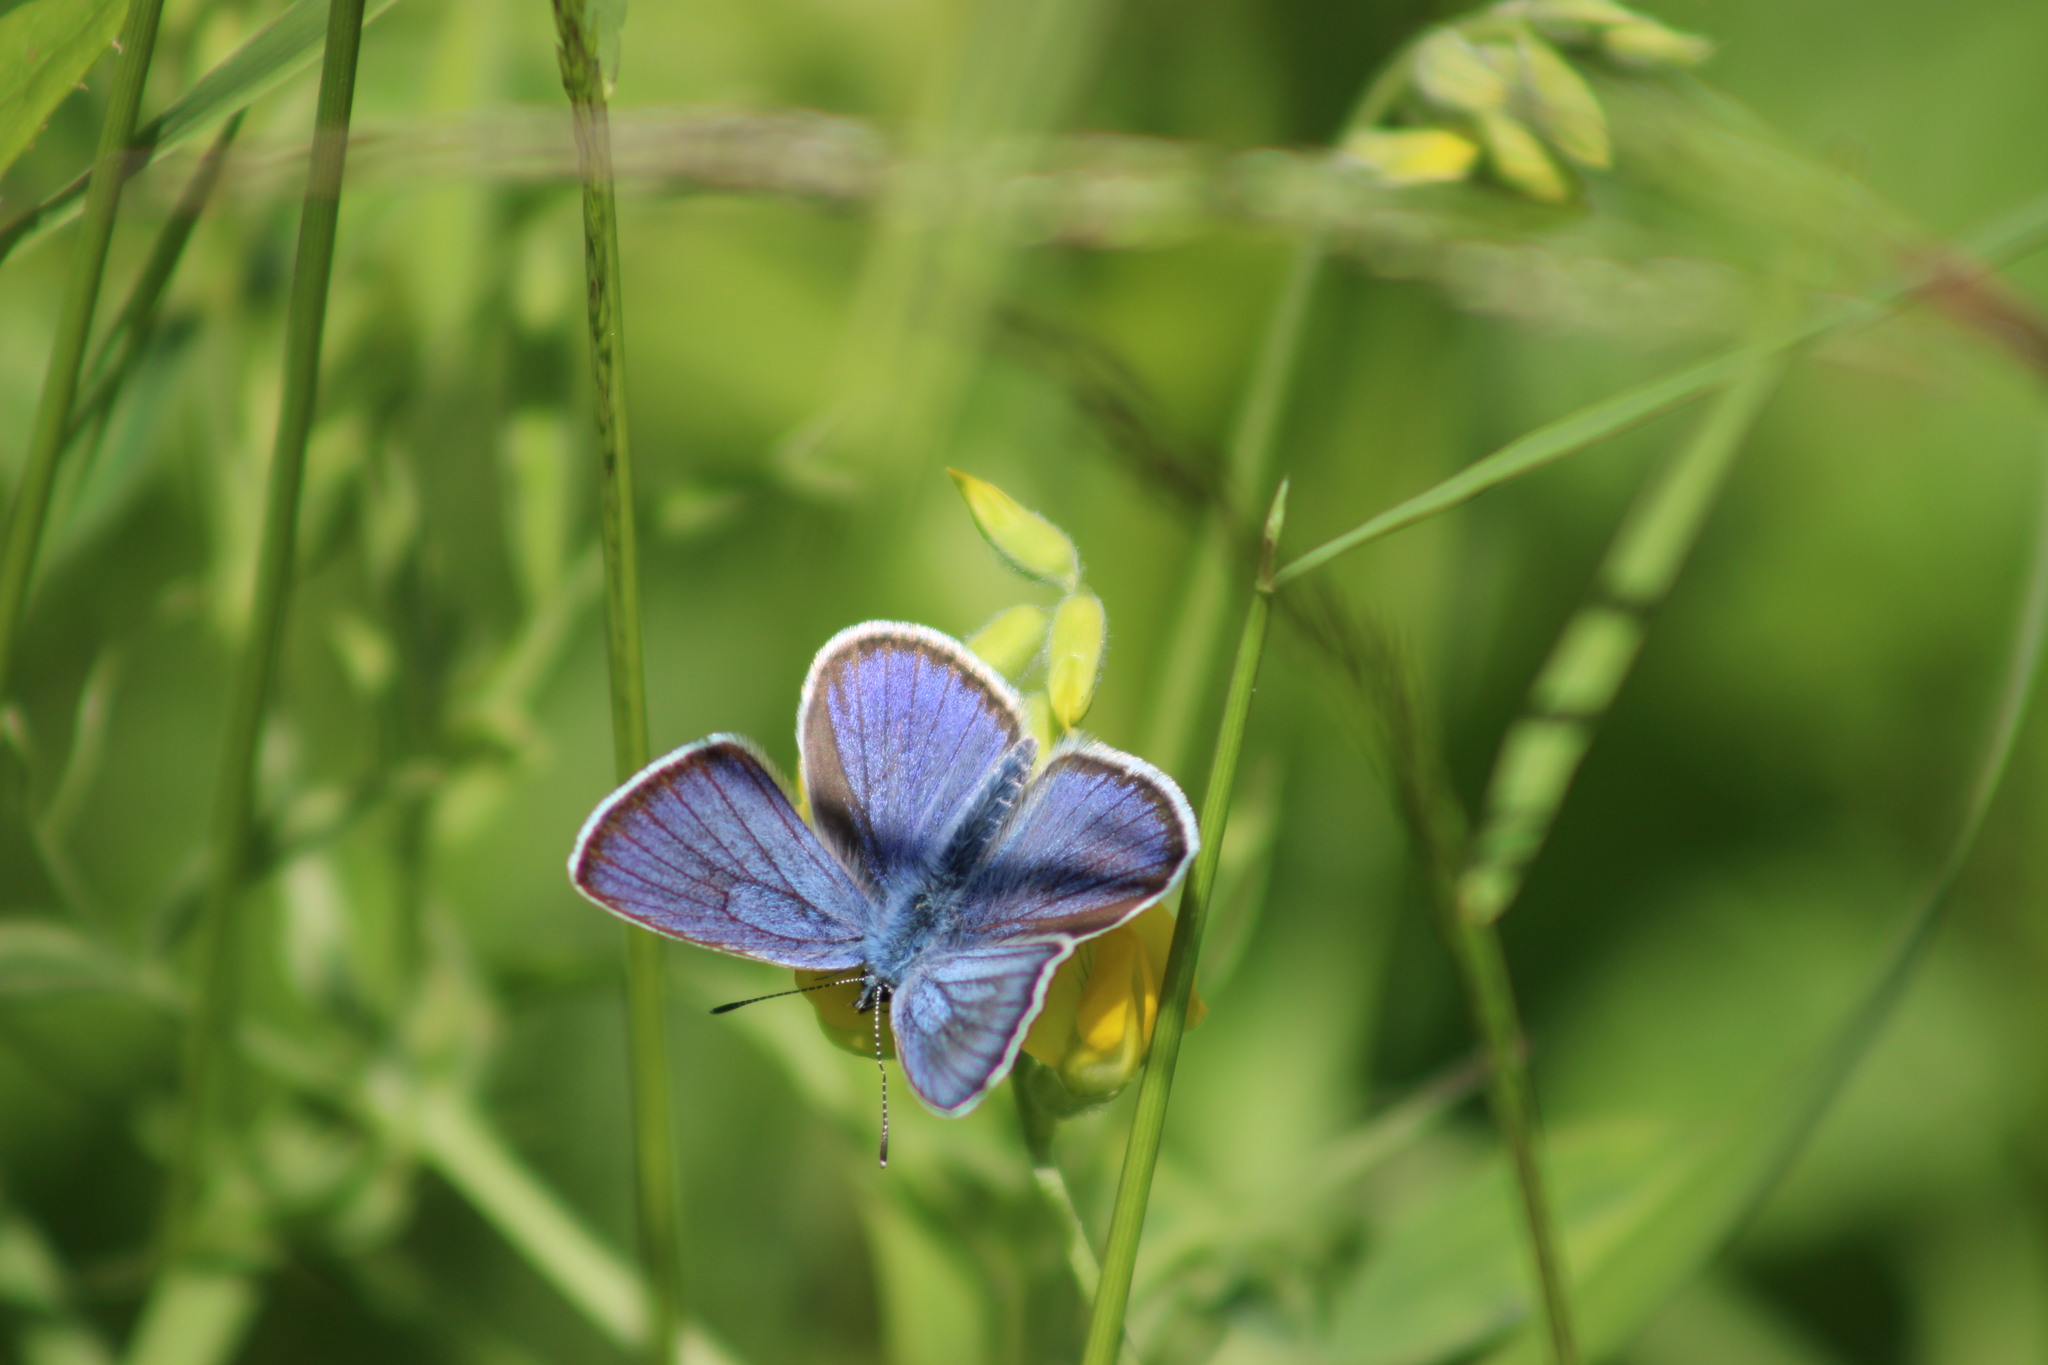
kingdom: Animalia
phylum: Arthropoda
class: Insecta
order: Lepidoptera
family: Lycaenidae
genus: Cyaniris
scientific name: Cyaniris semiargus
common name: Mazarine blue
